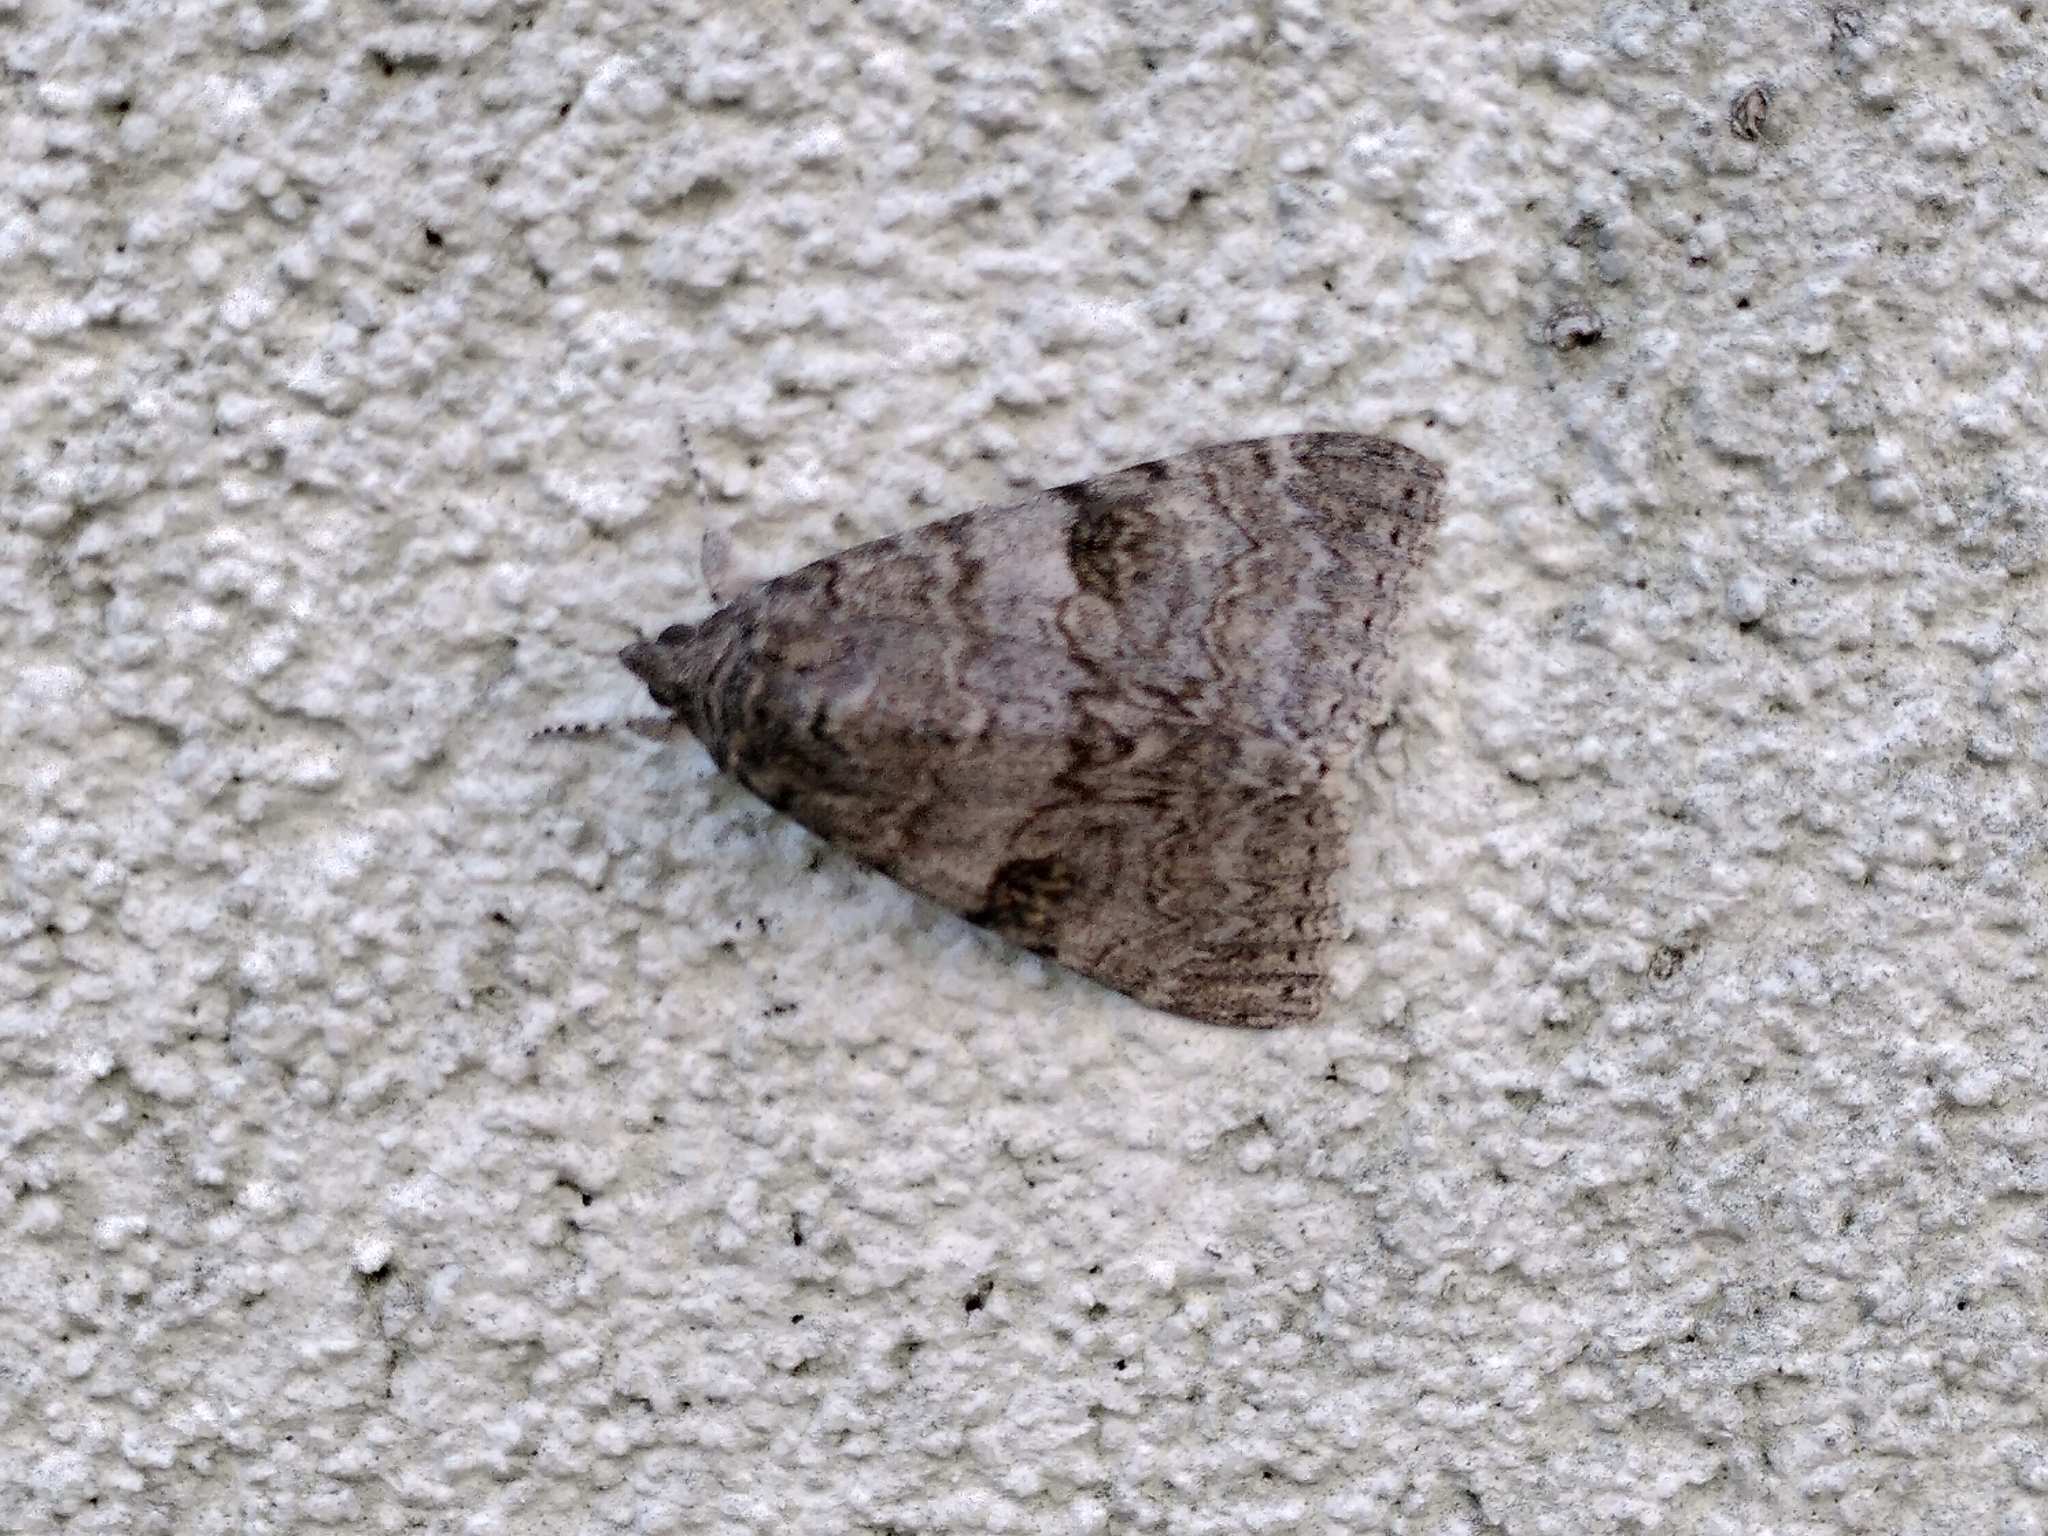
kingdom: Animalia
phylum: Arthropoda
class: Insecta
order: Lepidoptera
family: Erebidae
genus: Catocala
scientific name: Catocala nupta
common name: Red underwing
